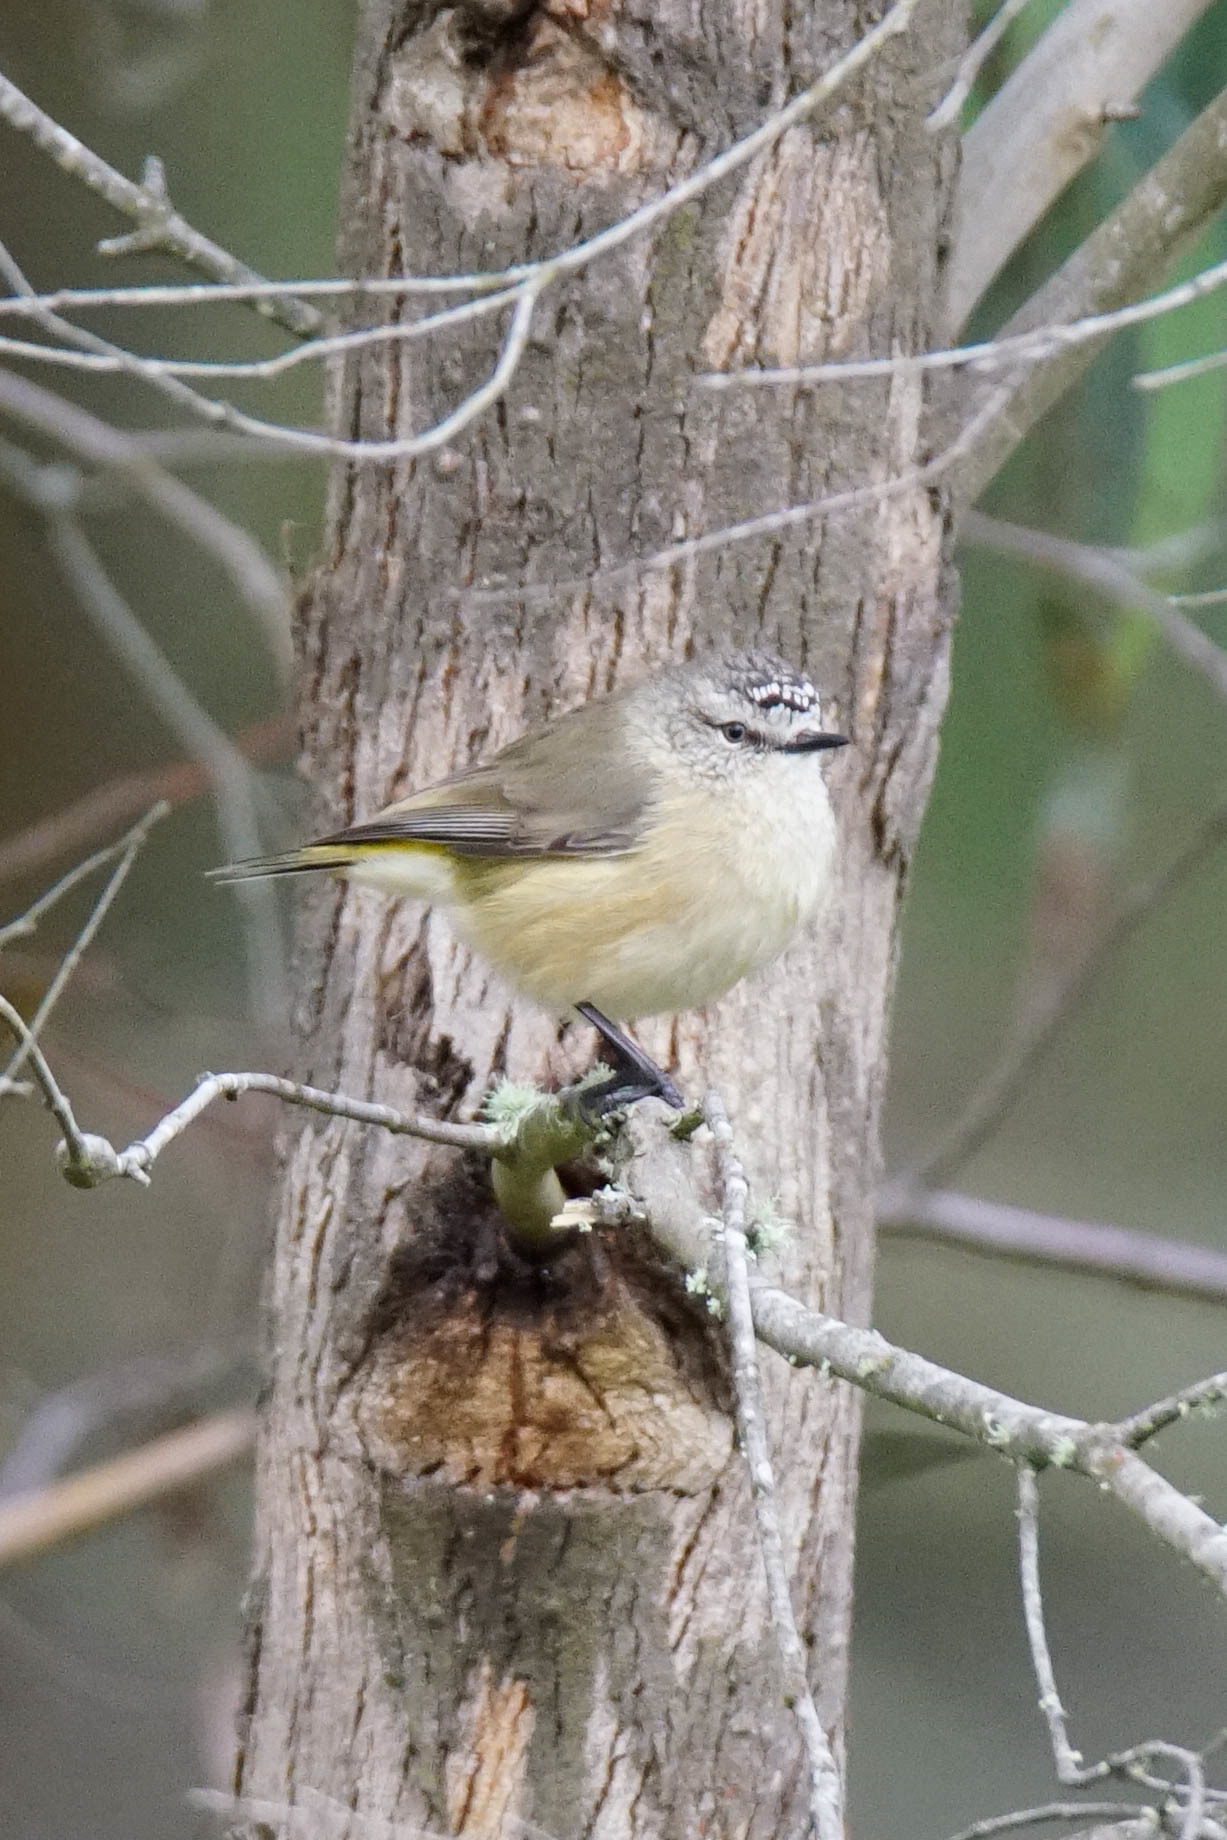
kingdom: Animalia
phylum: Chordata
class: Aves
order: Passeriformes
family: Acanthizidae
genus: Acanthiza
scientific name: Acanthiza chrysorrhoa
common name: Yellow-rumped thornbill
